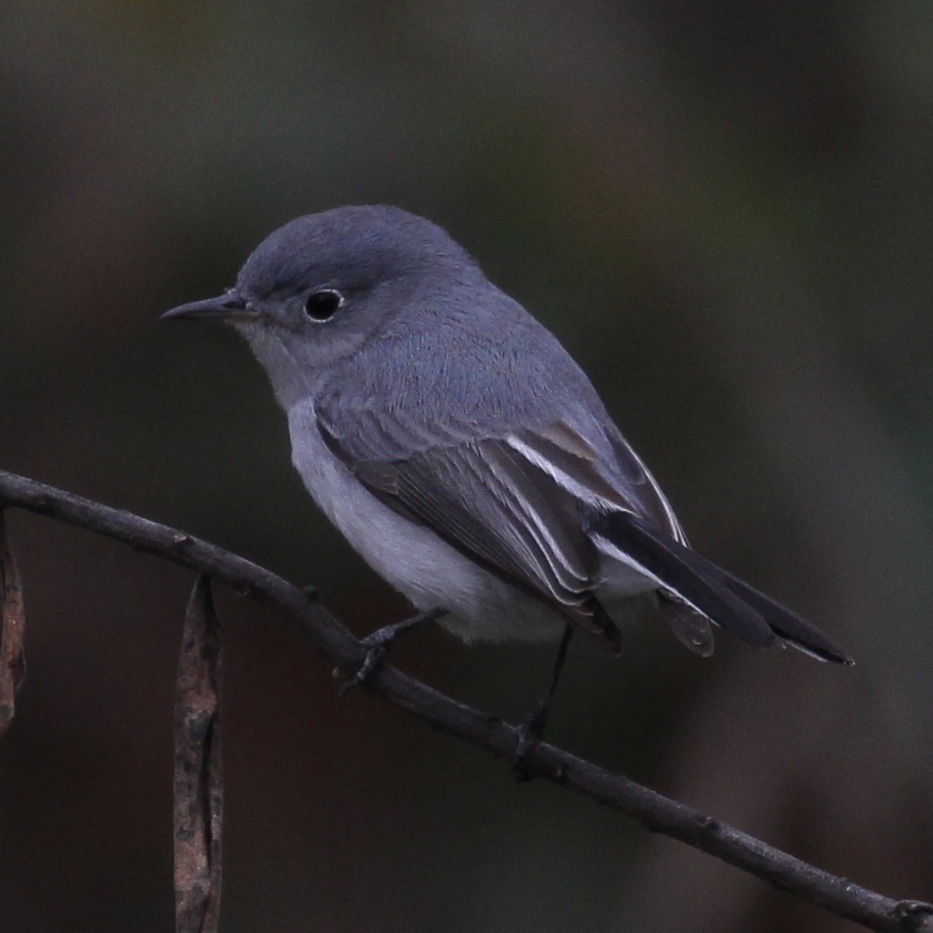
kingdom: Animalia
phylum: Chordata
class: Aves
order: Passeriformes
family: Polioptilidae
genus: Polioptila
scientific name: Polioptila caerulea
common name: Blue-gray gnatcatcher
